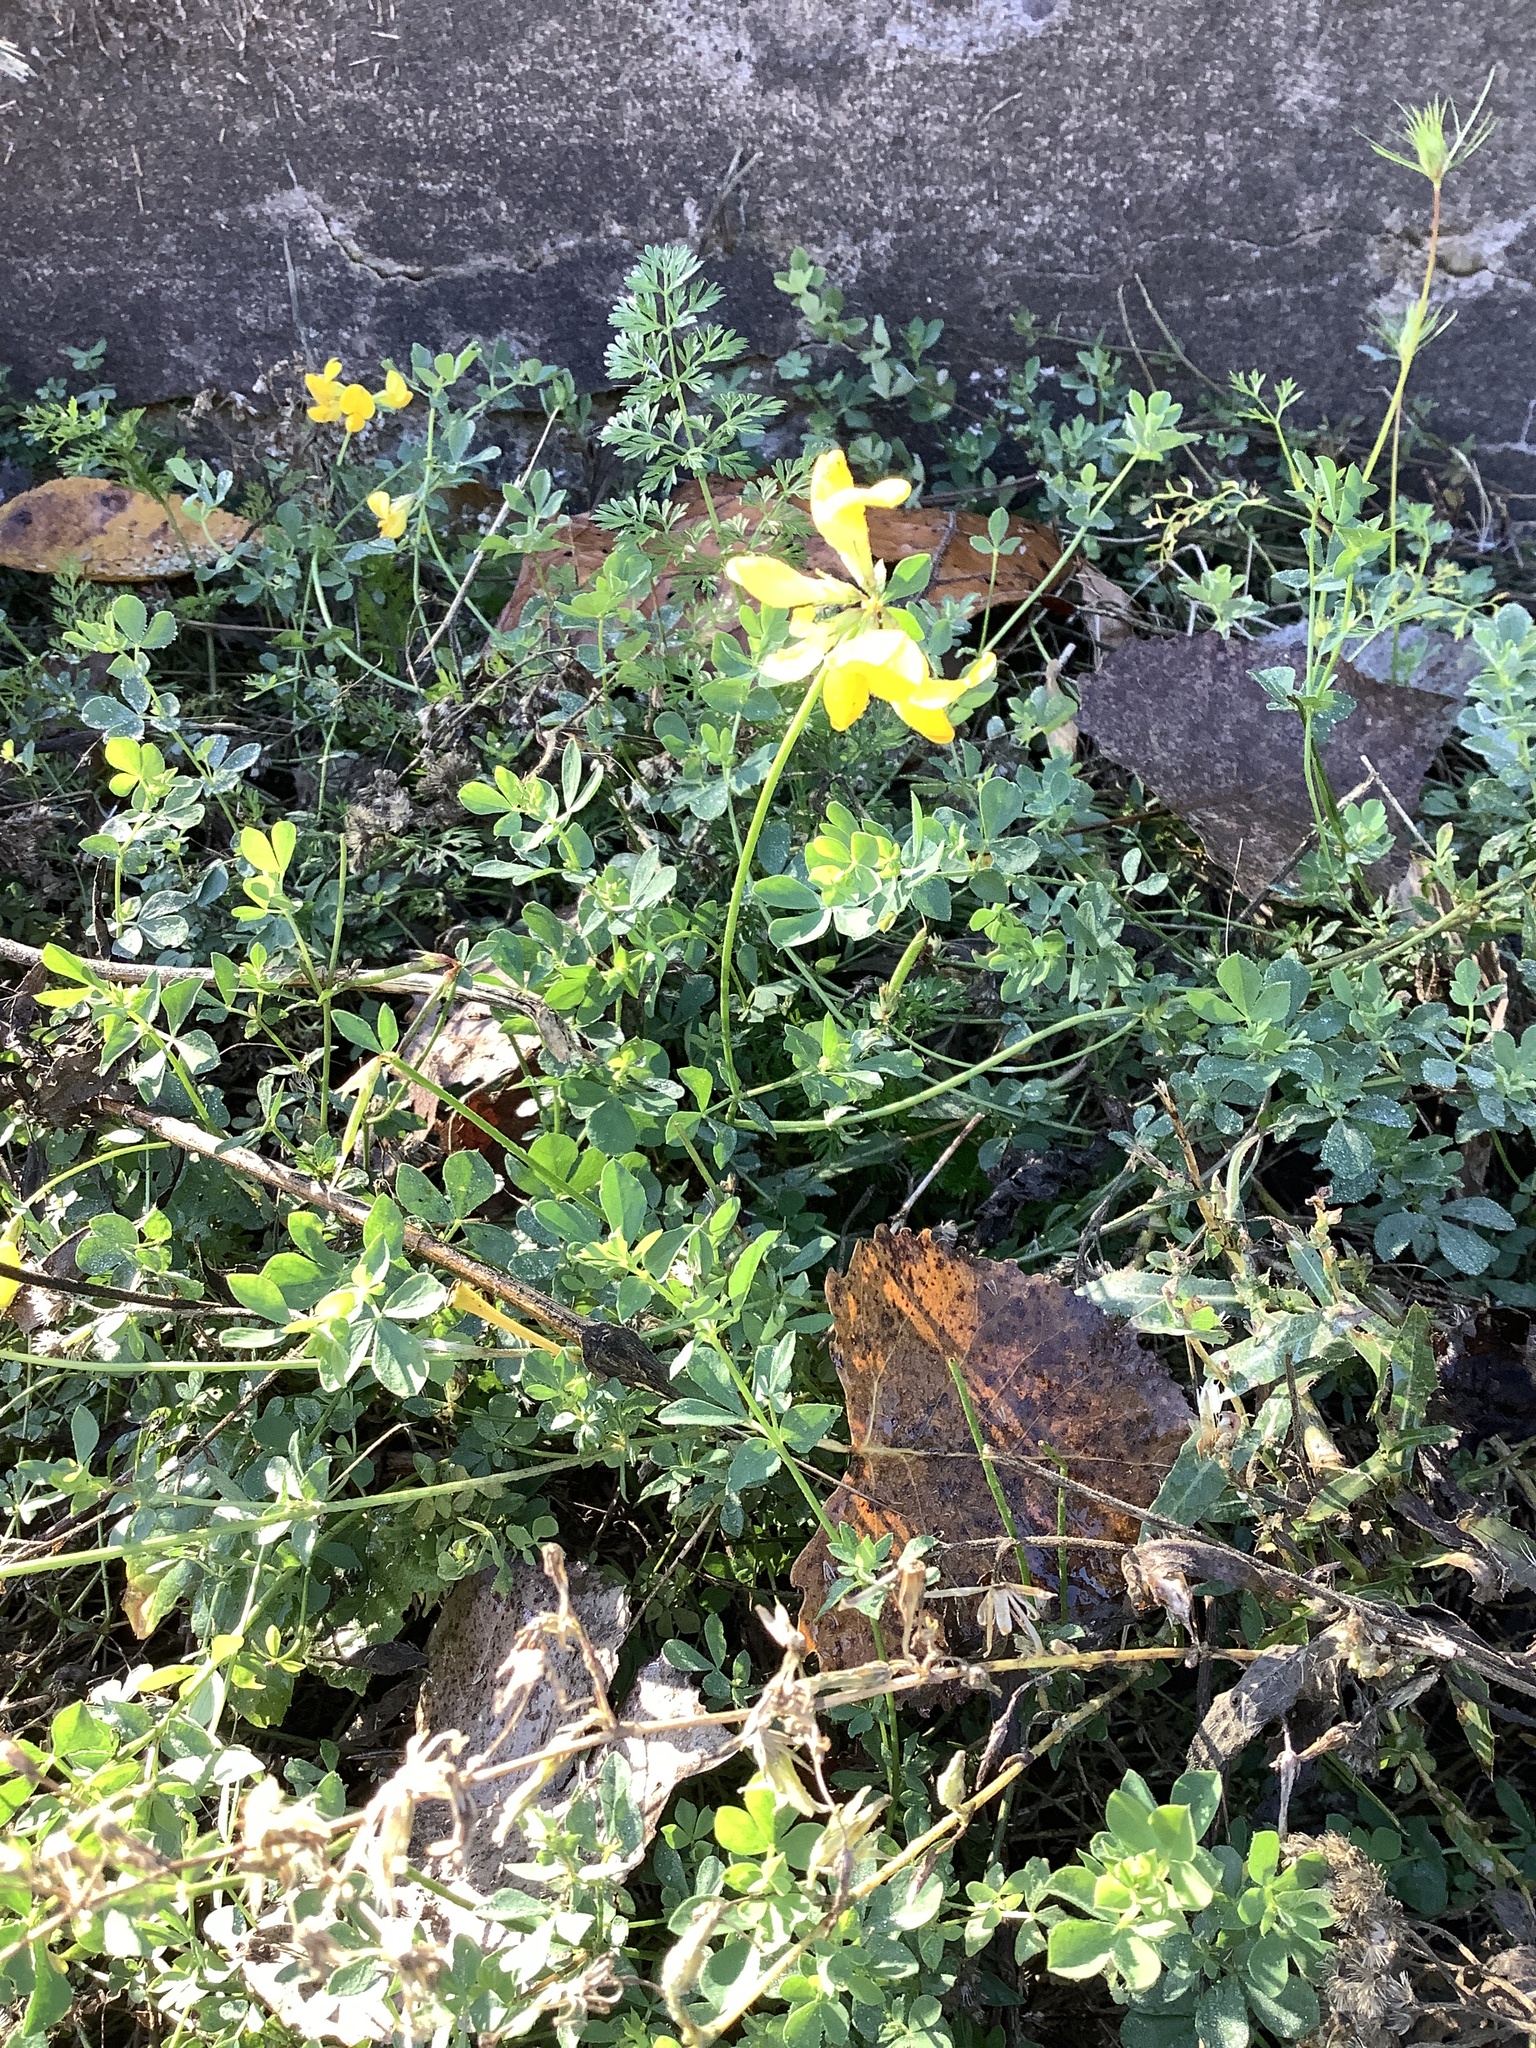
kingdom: Plantae
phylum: Tracheophyta
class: Magnoliopsida
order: Fabales
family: Fabaceae
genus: Lotus
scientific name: Lotus corniculatus
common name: Common bird's-foot-trefoil
